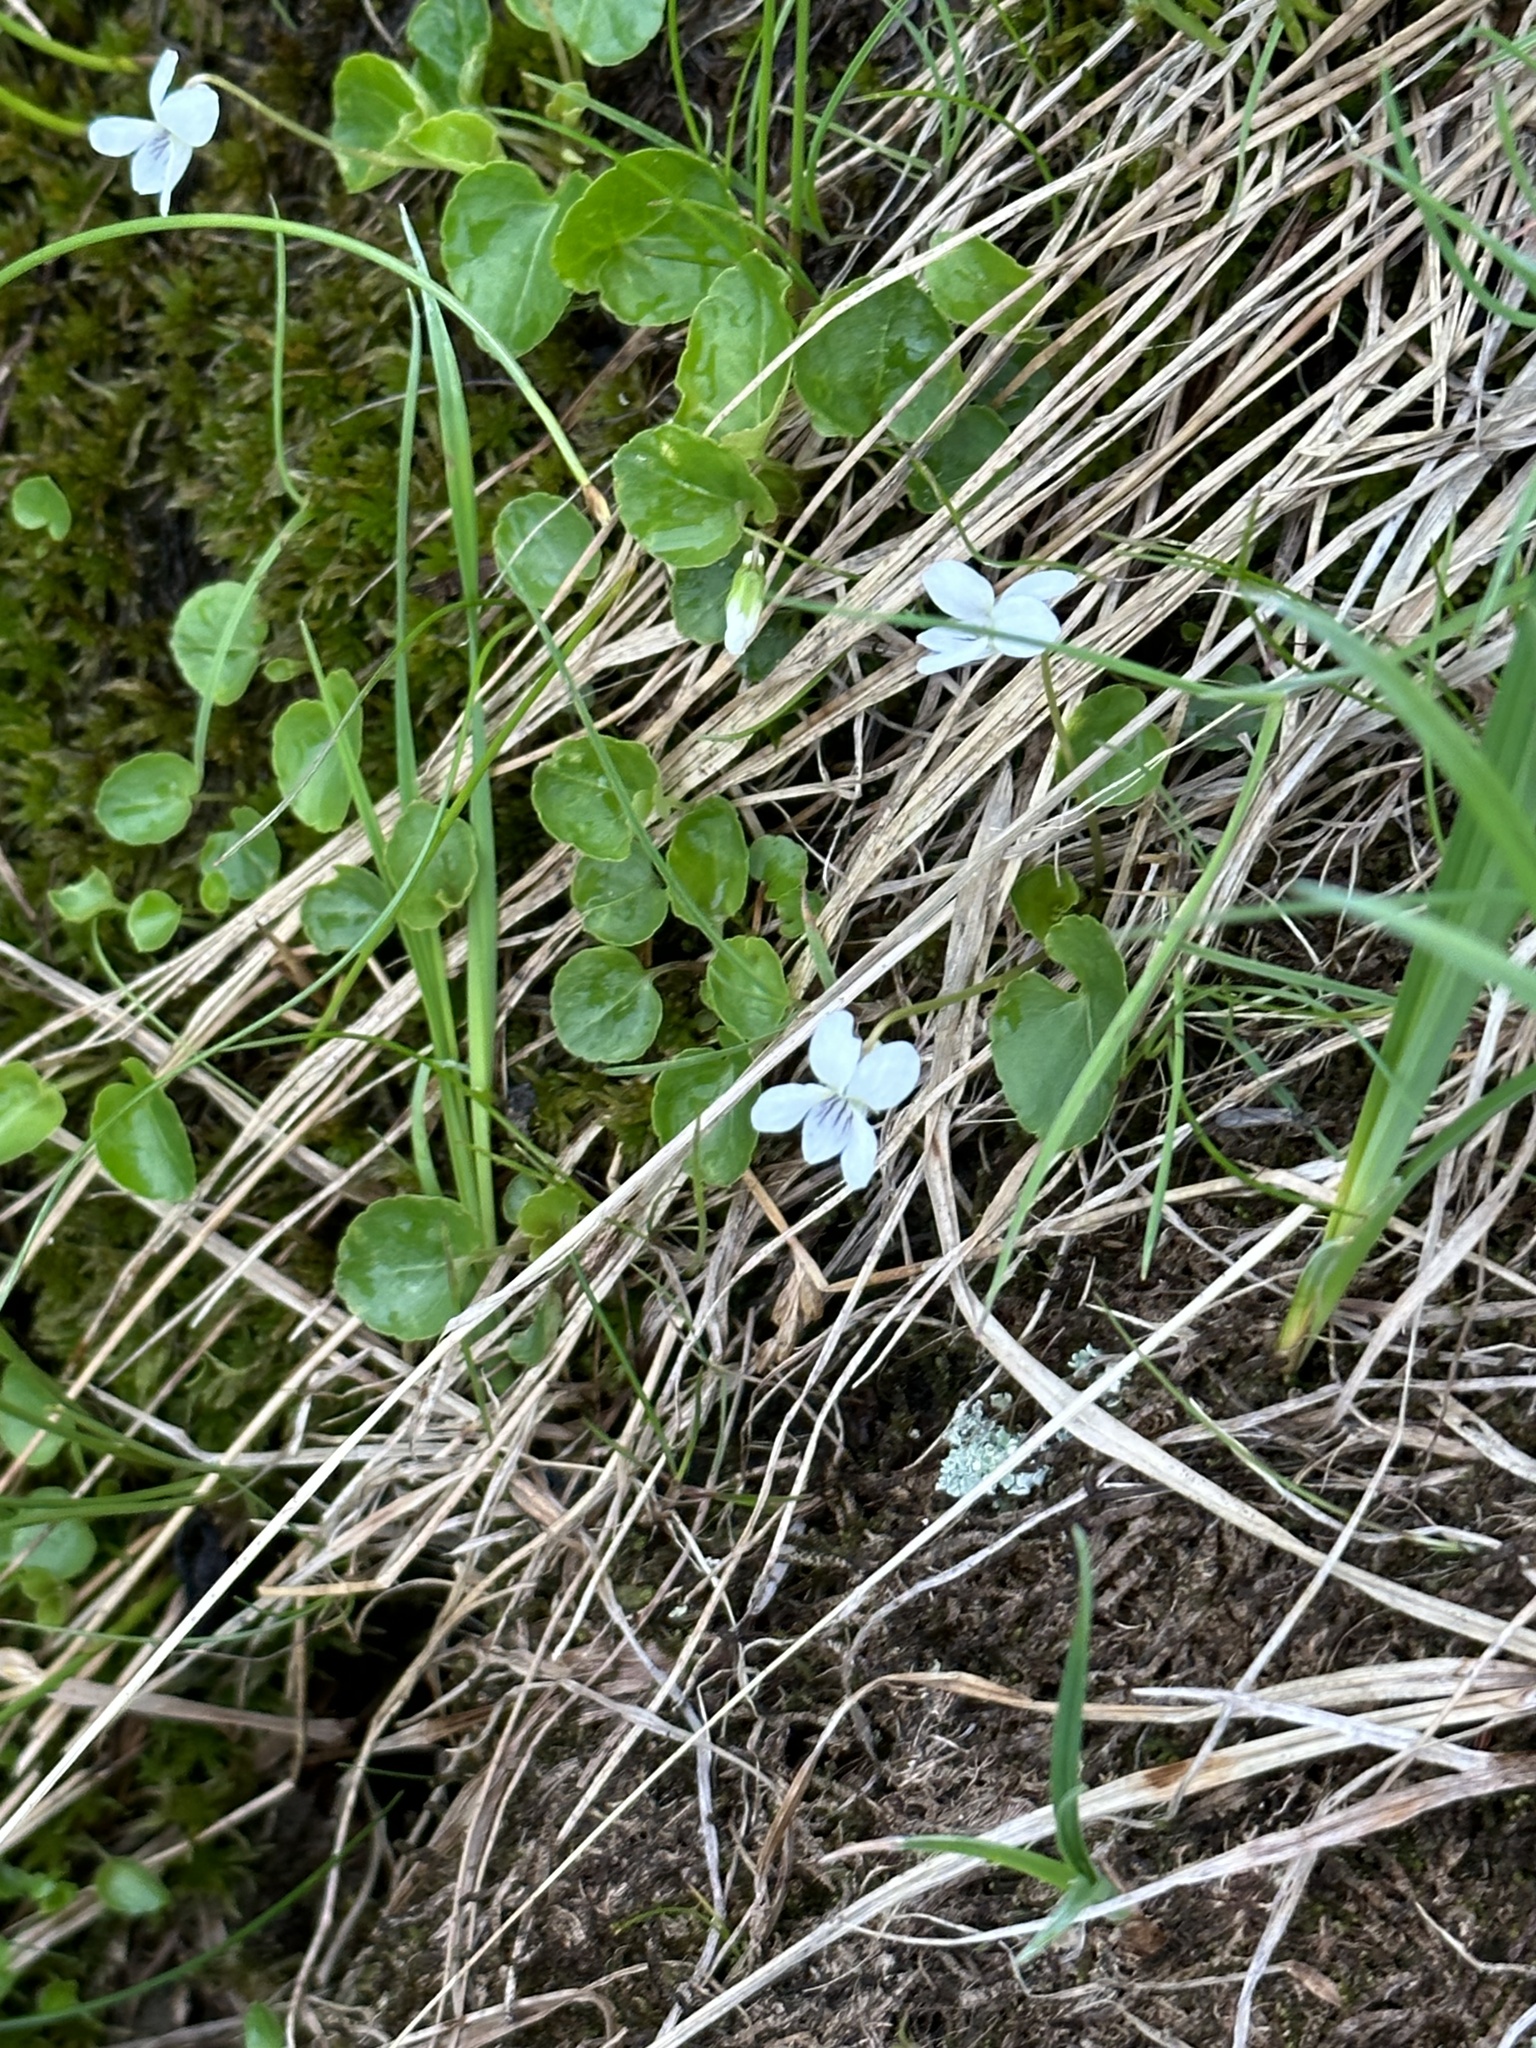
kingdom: Plantae
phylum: Tracheophyta
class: Magnoliopsida
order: Malpighiales
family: Violaceae
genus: Viola
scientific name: Viola minuscula
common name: Northern white violet
